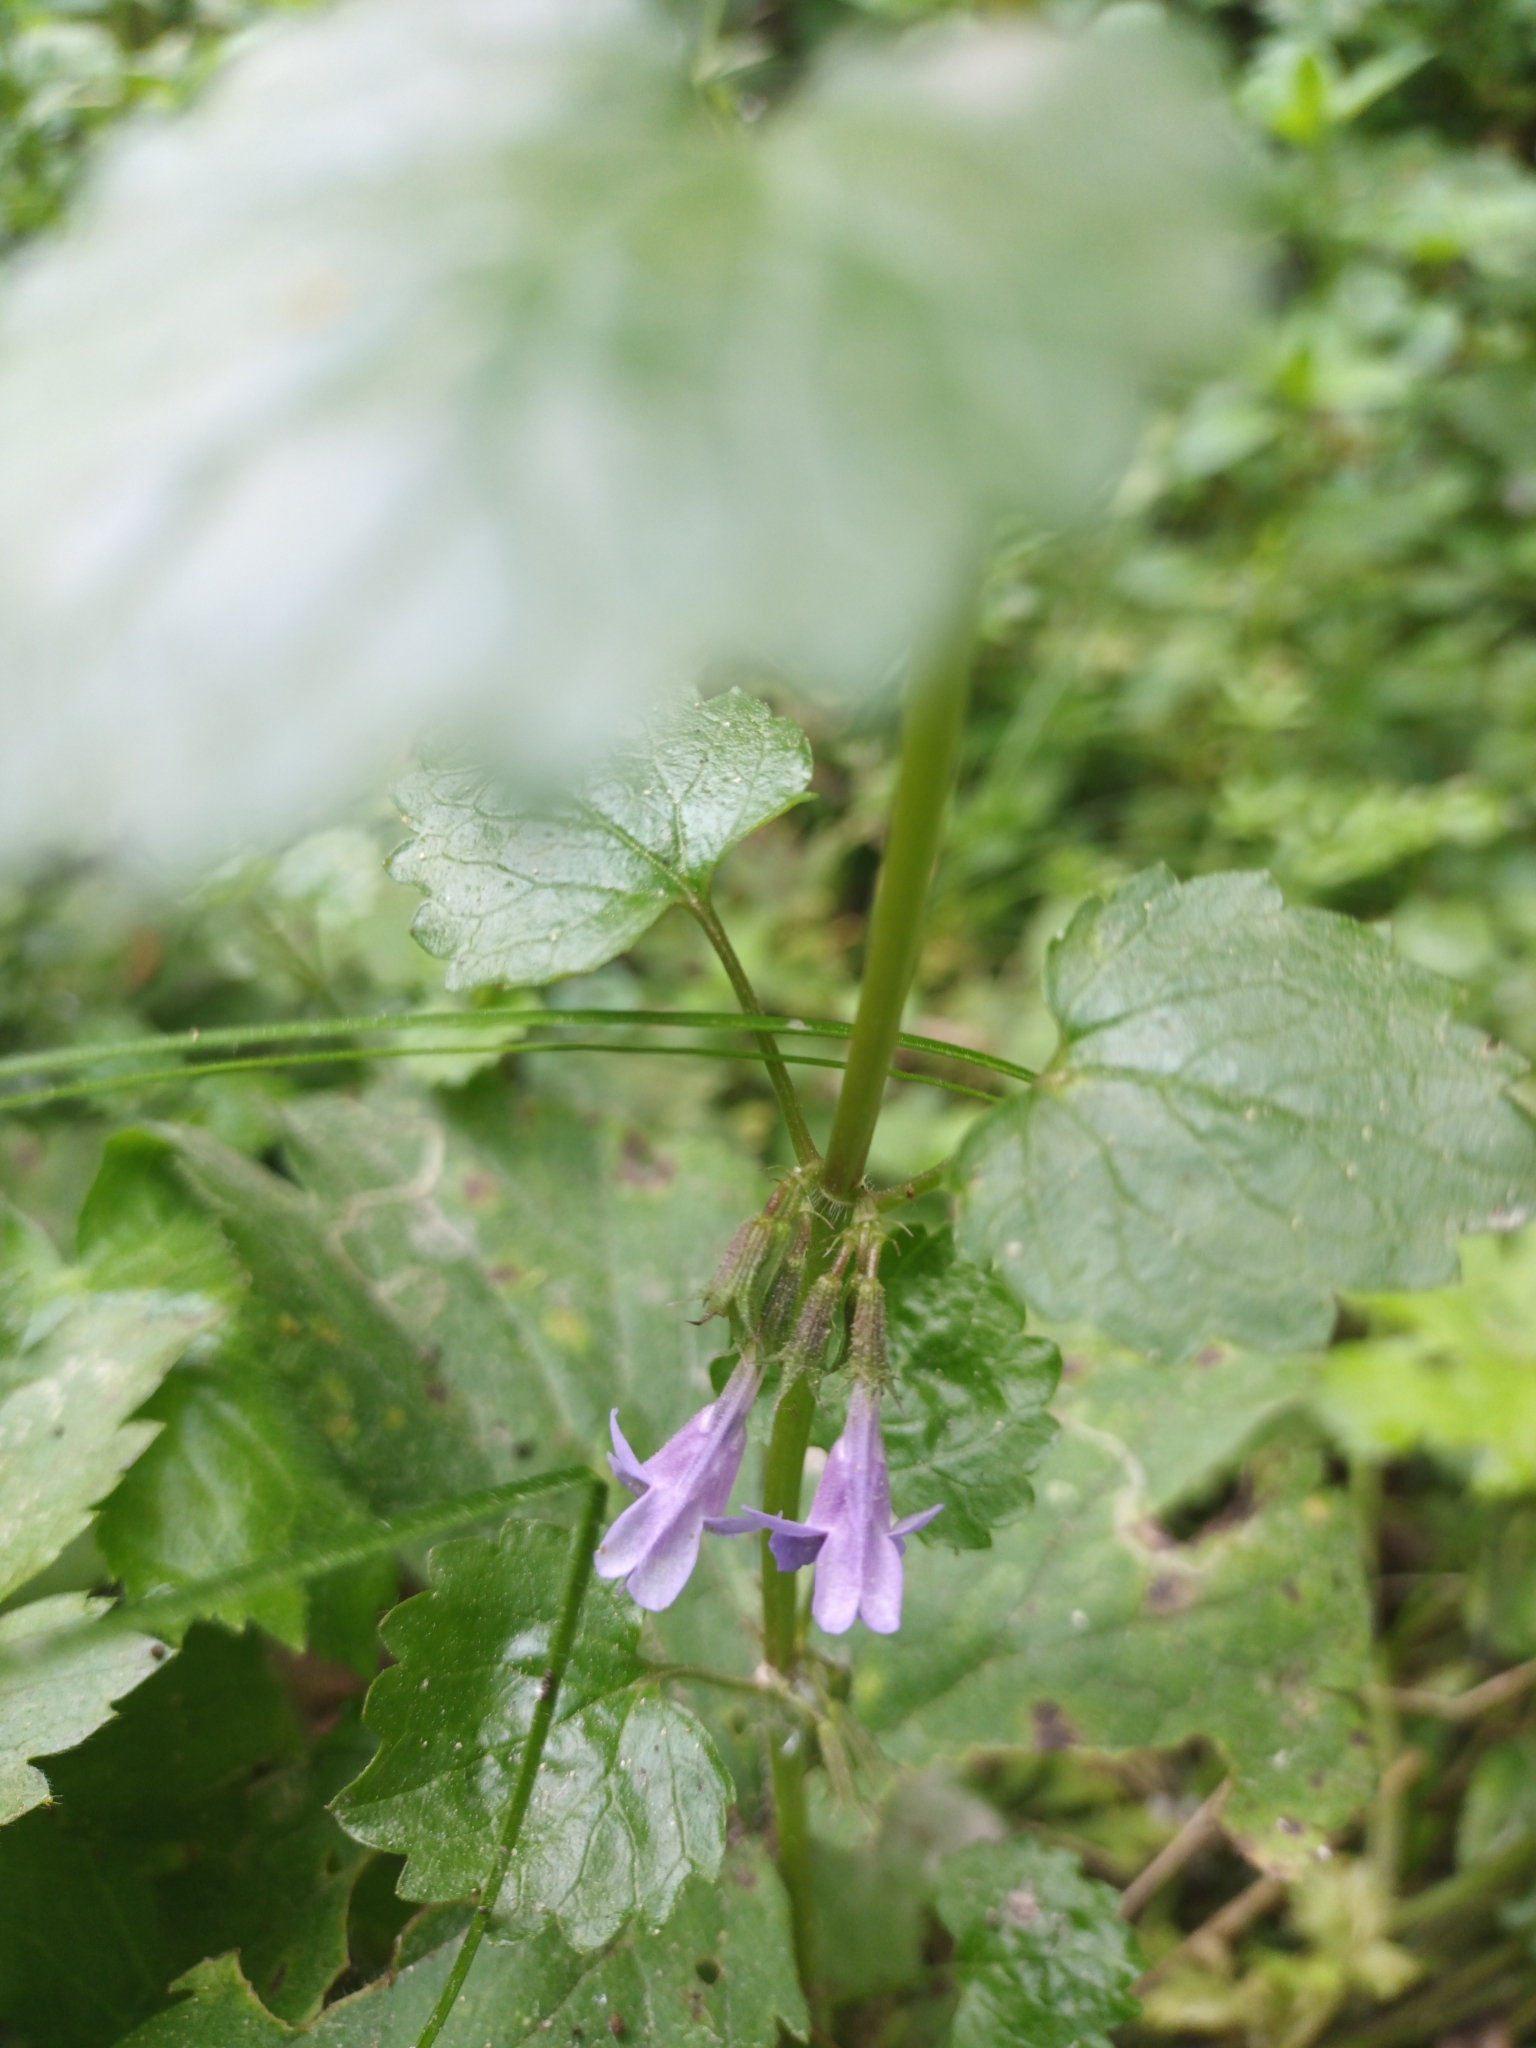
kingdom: Plantae
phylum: Tracheophyta
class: Magnoliopsida
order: Lamiales
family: Lamiaceae
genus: Glechoma
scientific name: Glechoma hederacea
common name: Ground ivy
